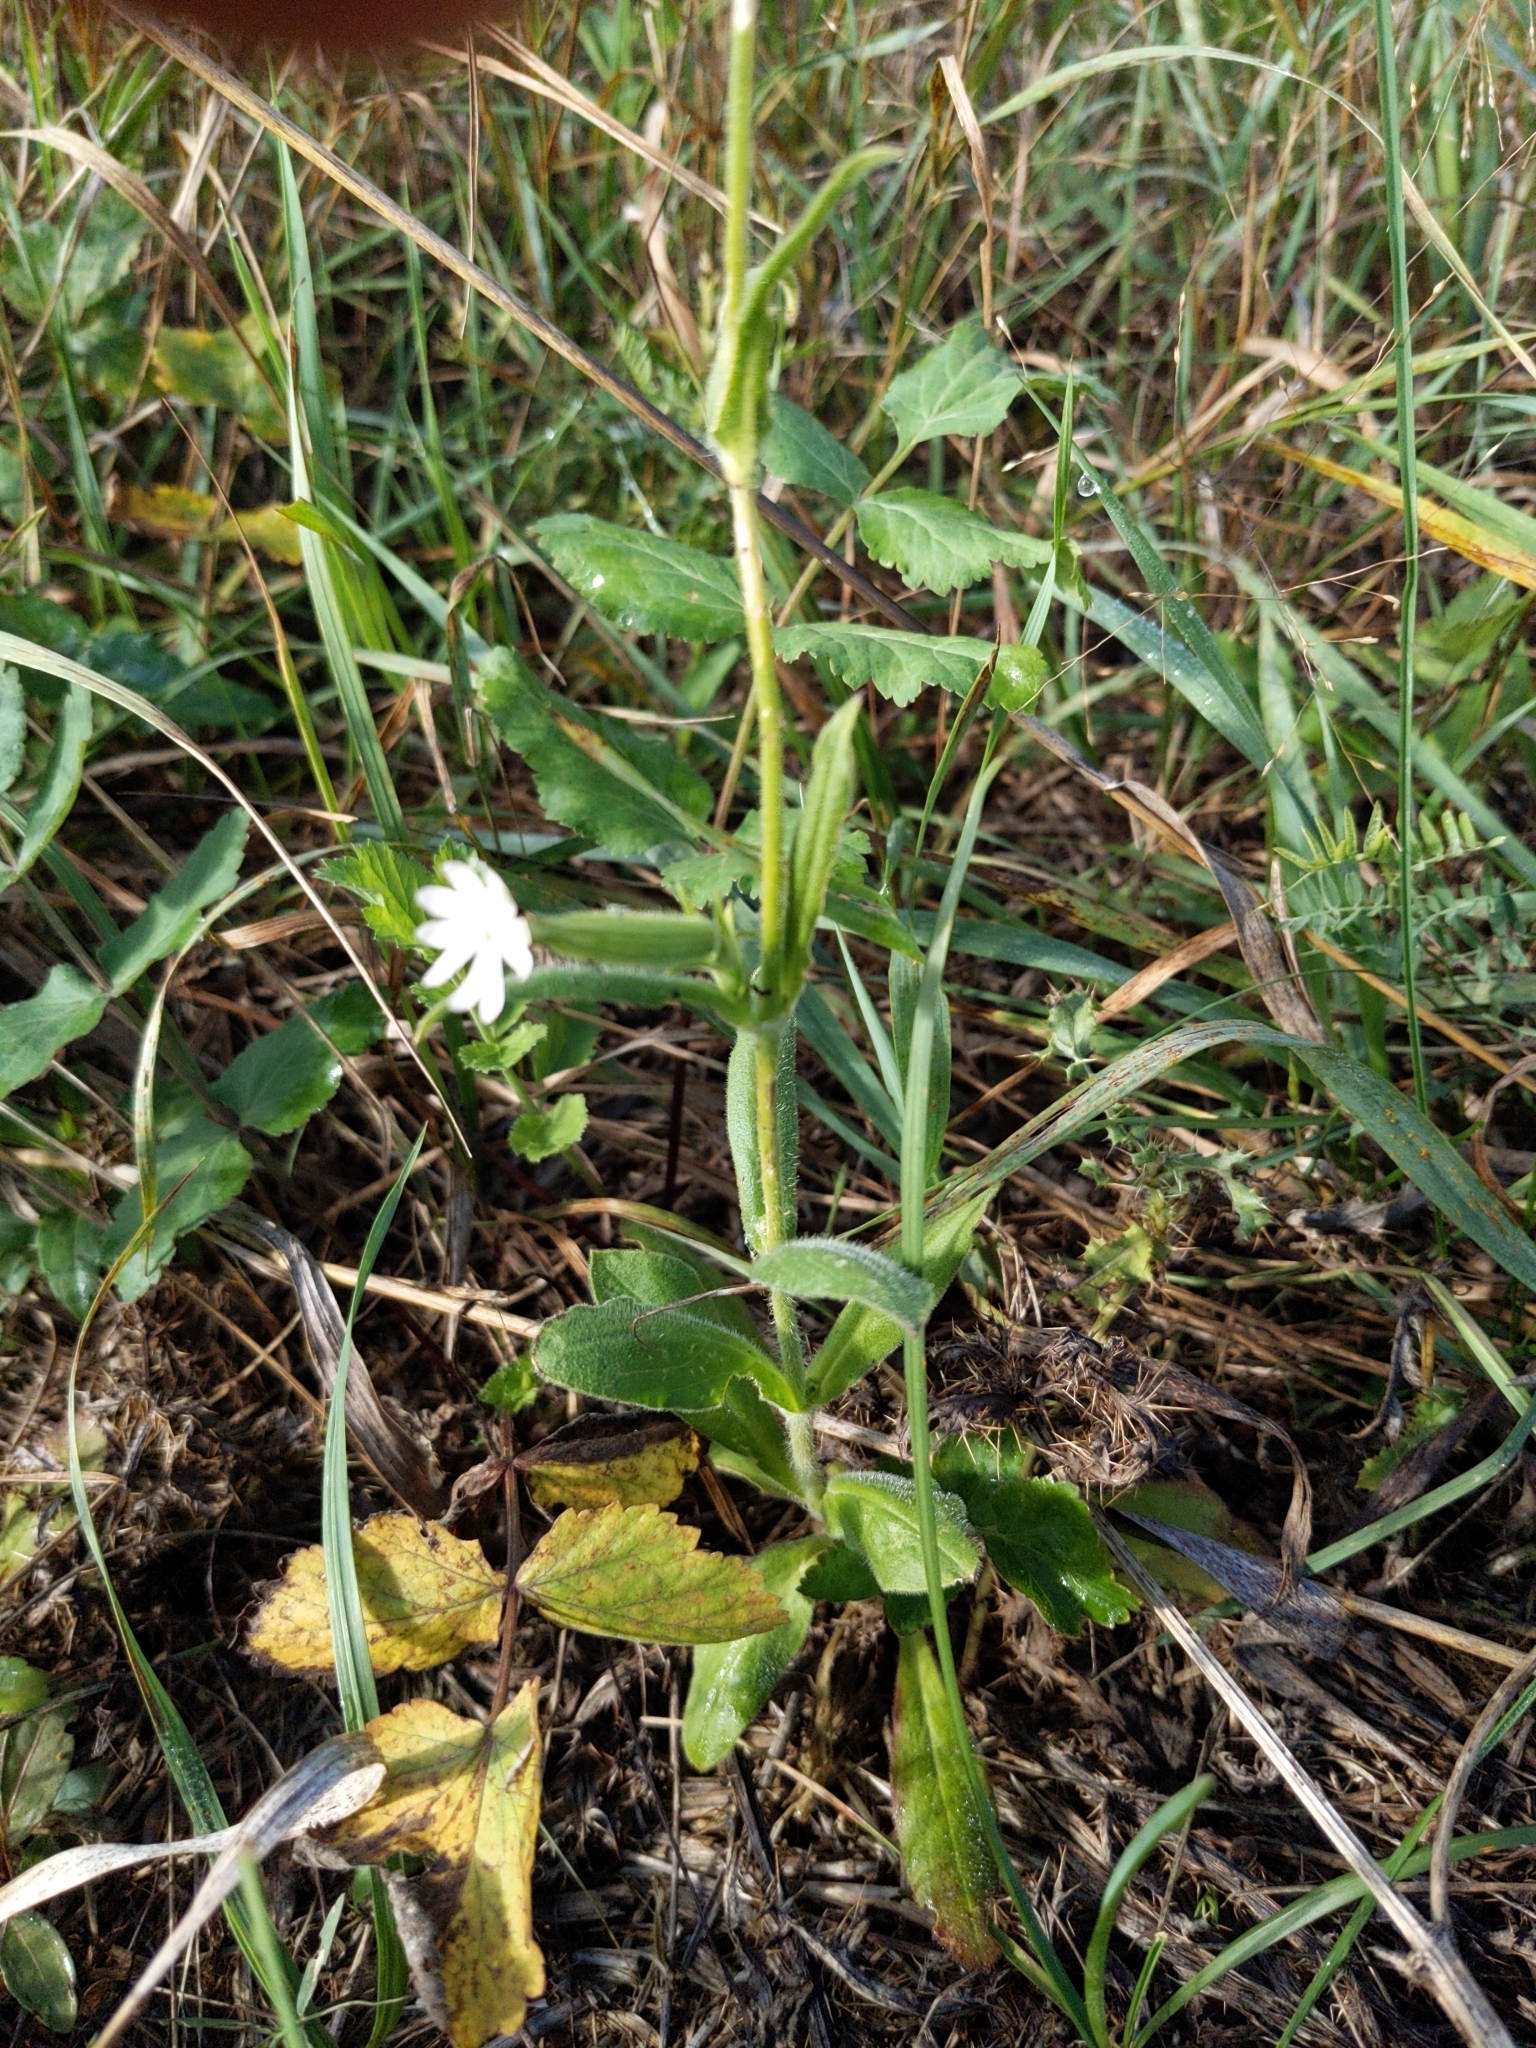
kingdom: Plantae
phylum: Tracheophyta
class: Magnoliopsida
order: Caryophyllales
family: Caryophyllaceae
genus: Silene
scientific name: Silene noctiflora
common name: Night-flowering catchfly
